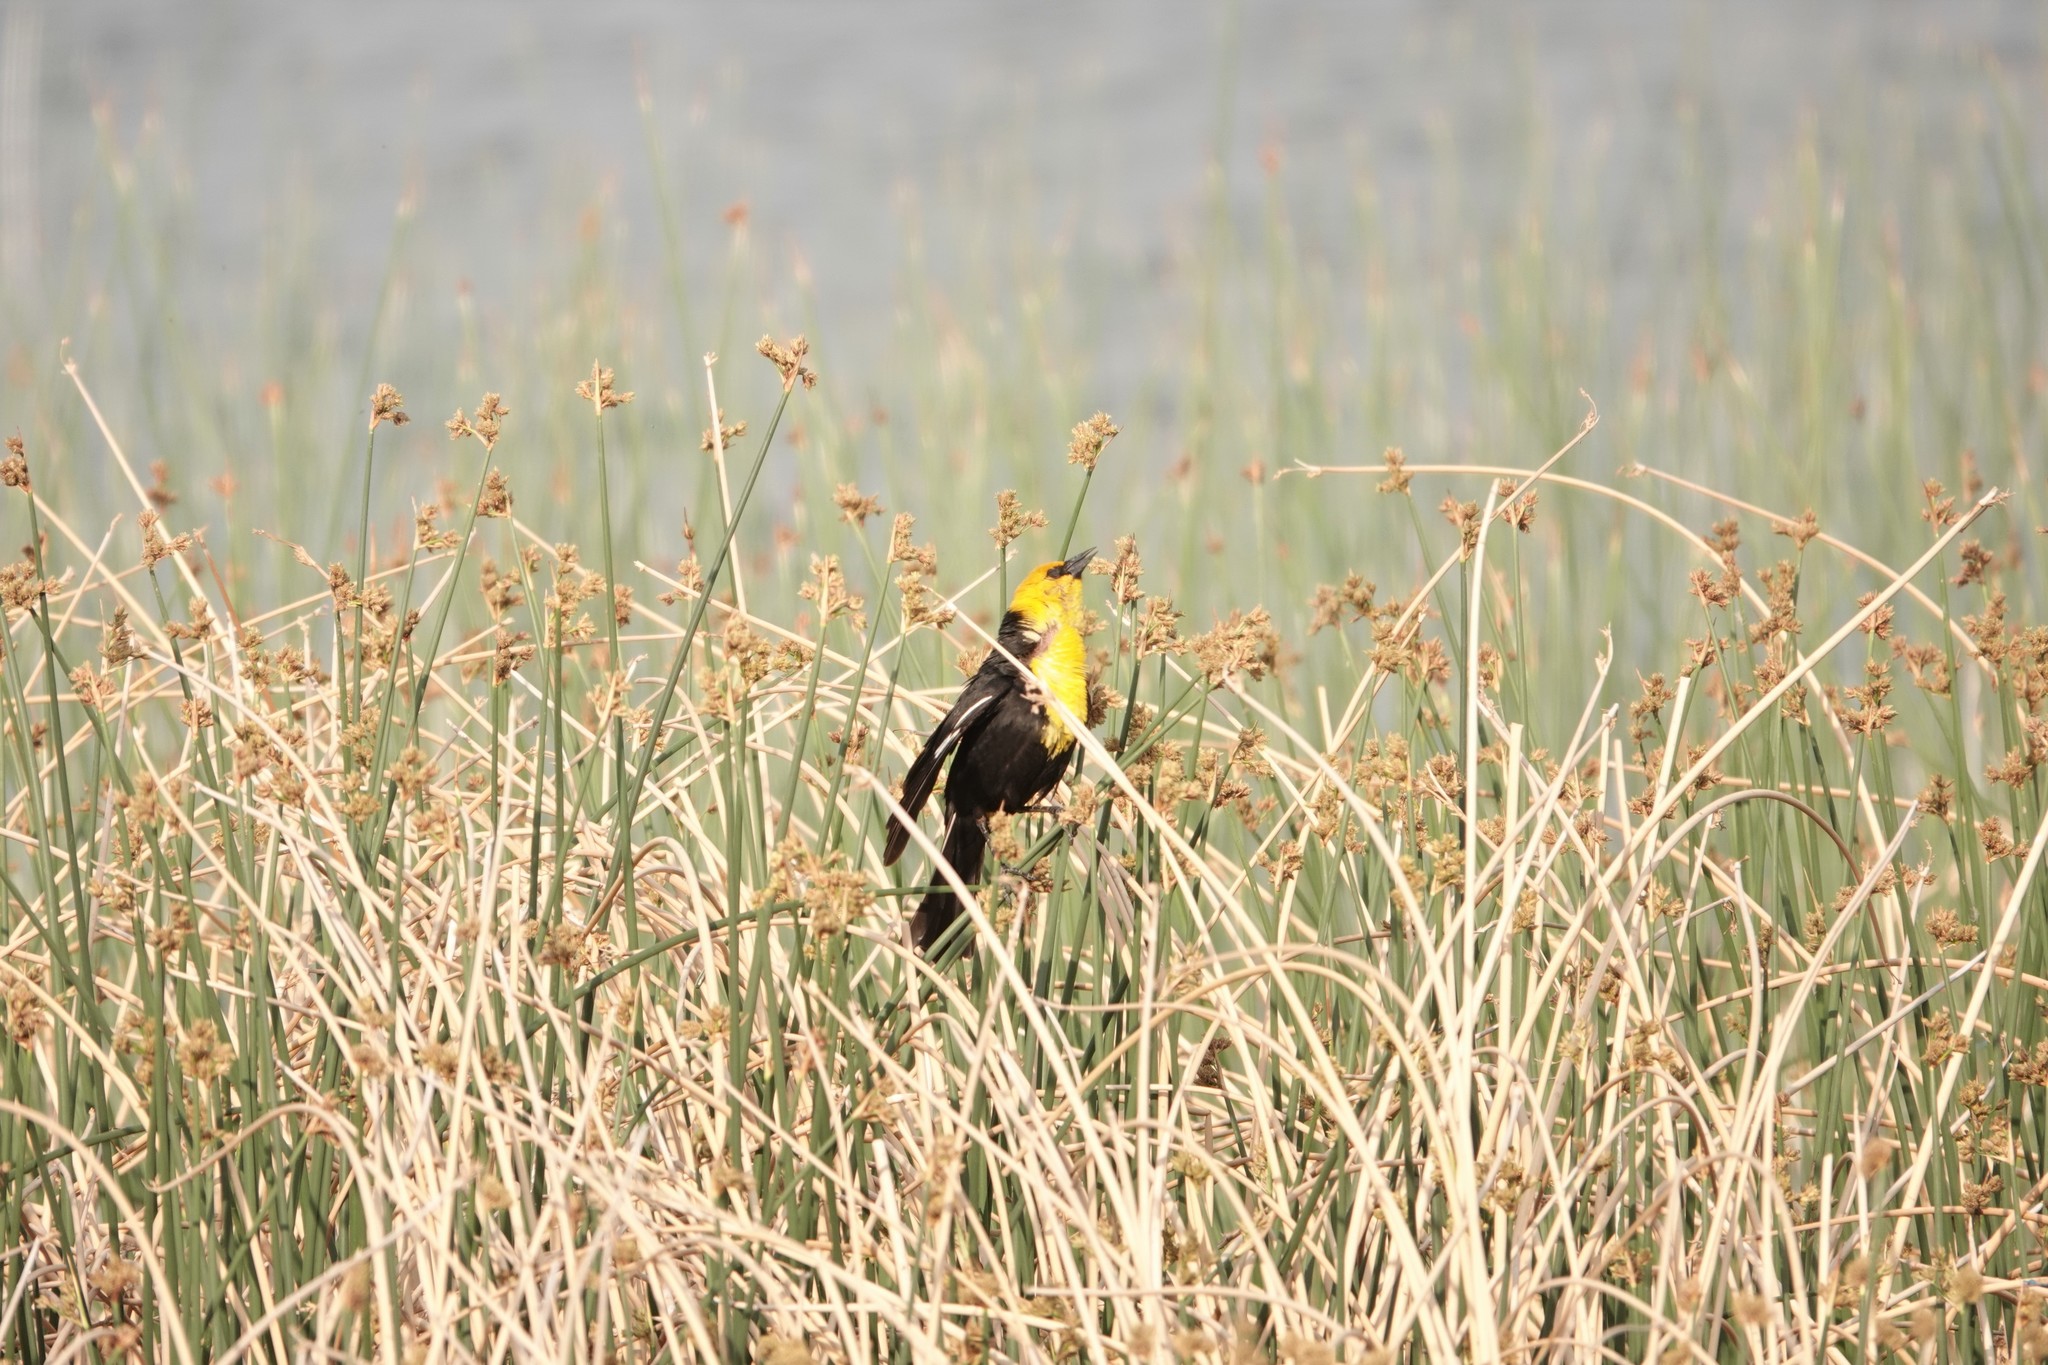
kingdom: Animalia
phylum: Chordata
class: Aves
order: Passeriformes
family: Icteridae
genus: Xanthocephalus
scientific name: Xanthocephalus xanthocephalus
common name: Yellow-headed blackbird
